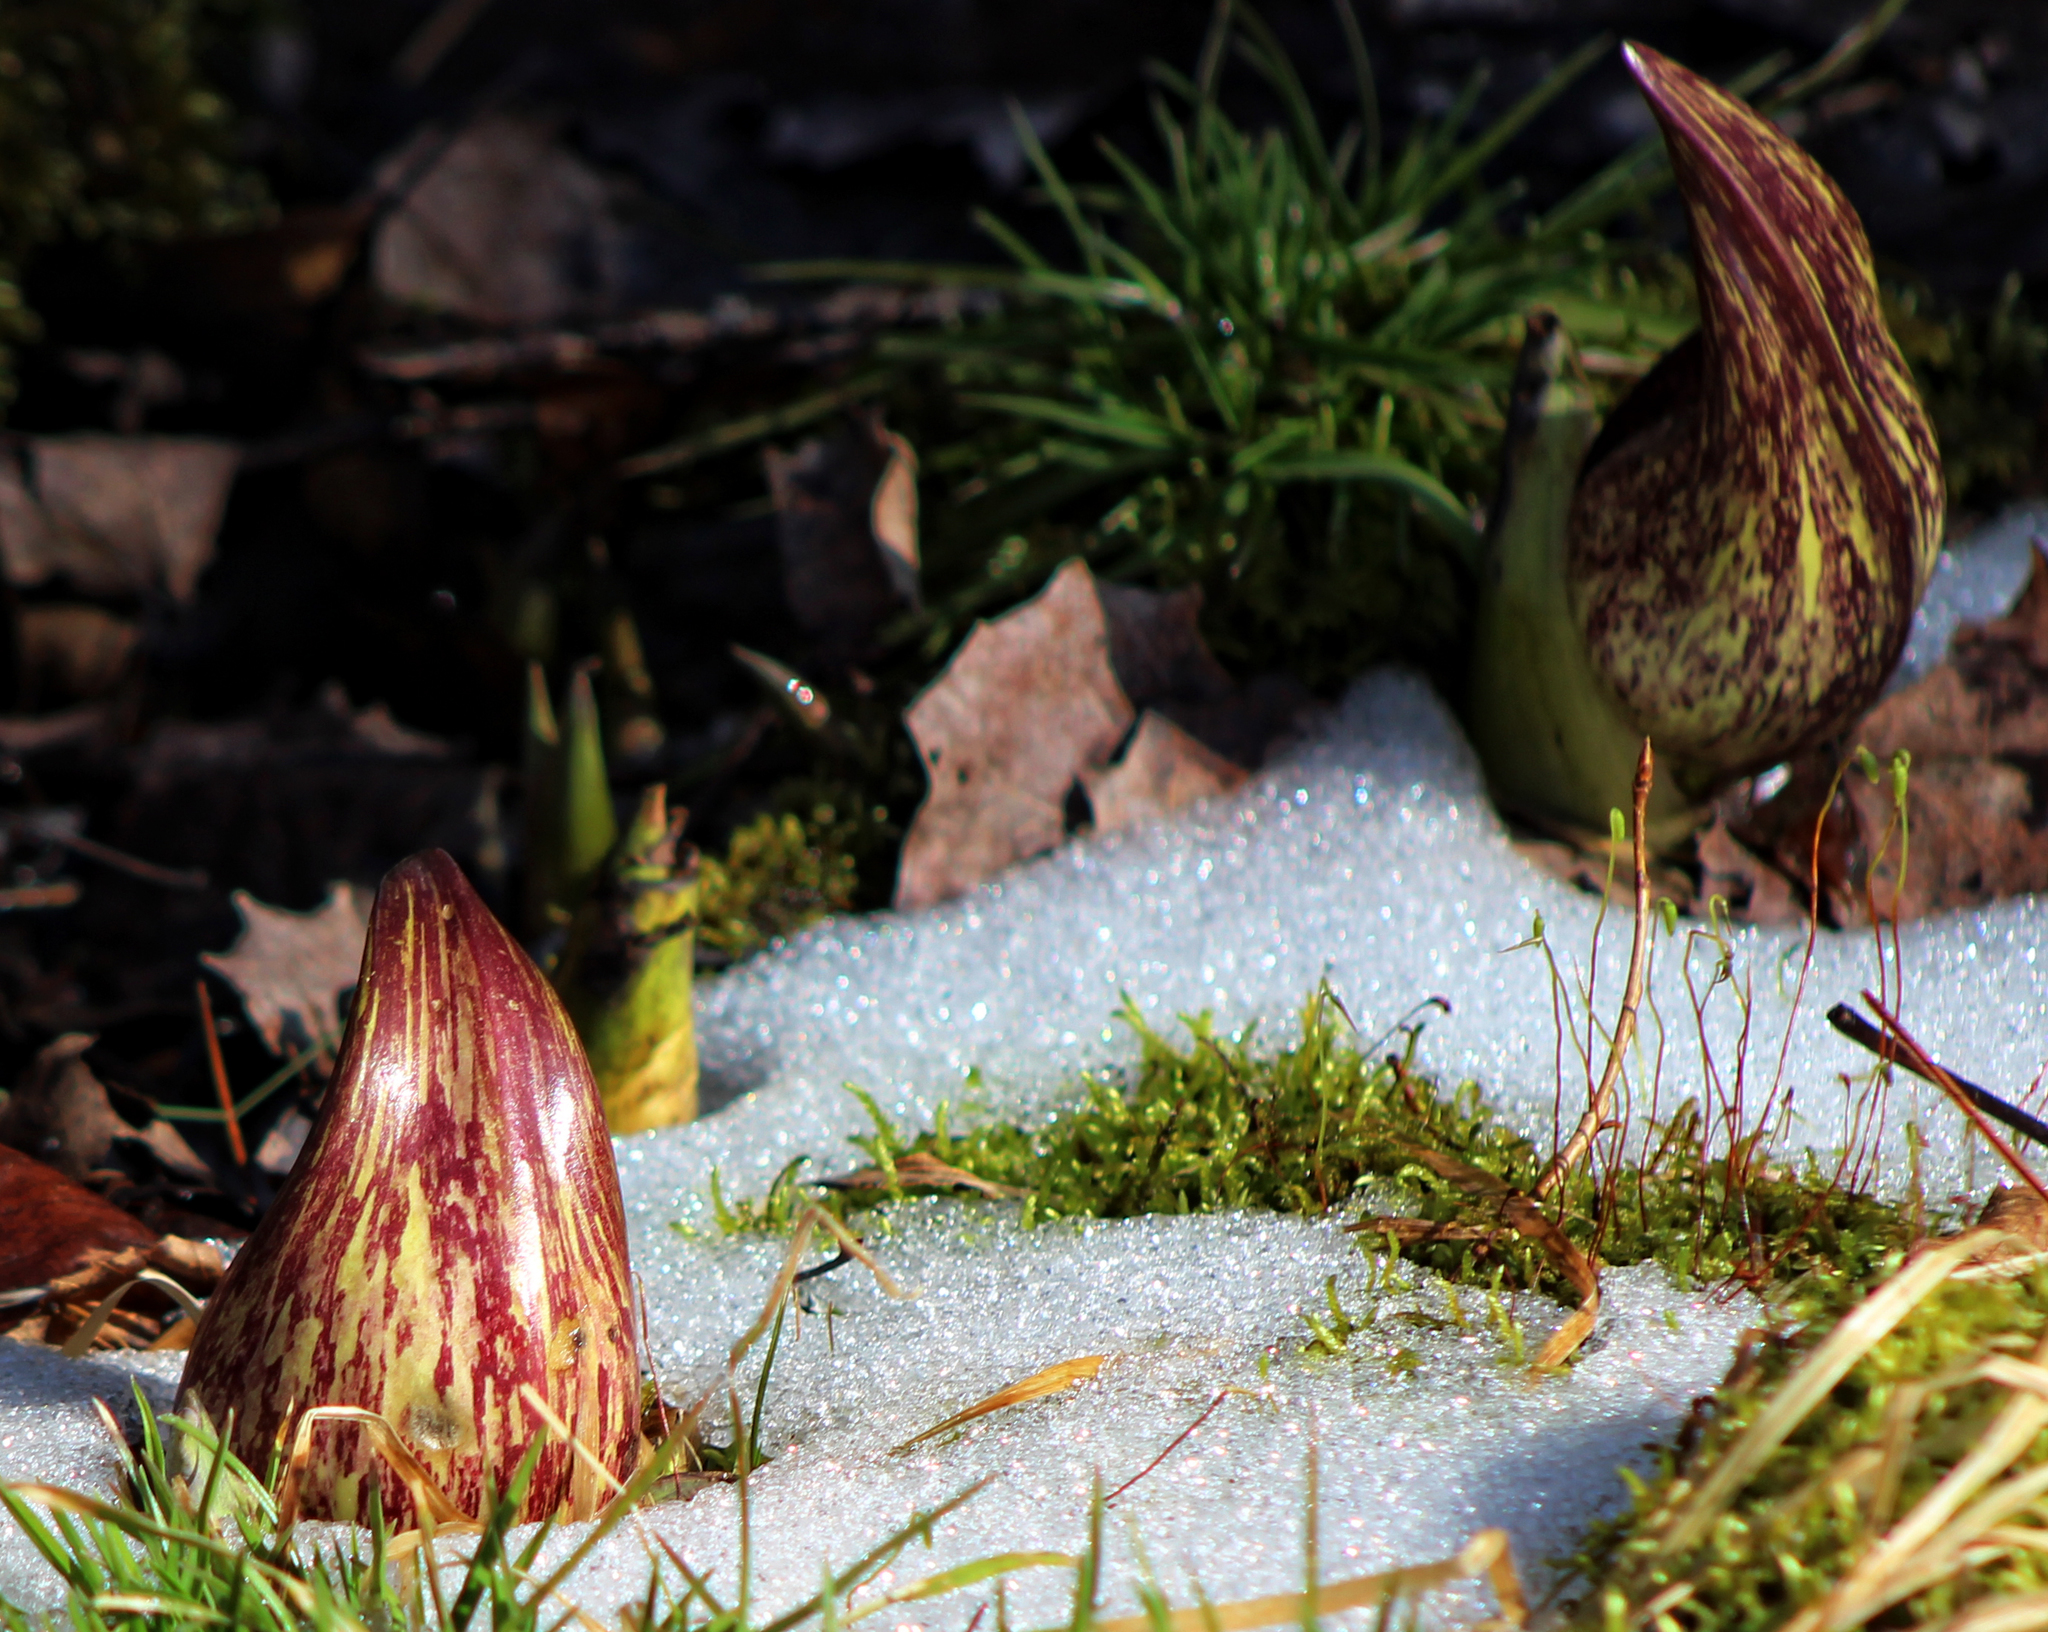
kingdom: Plantae
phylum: Tracheophyta
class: Liliopsida
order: Alismatales
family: Araceae
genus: Symplocarpus
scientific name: Symplocarpus foetidus
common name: Eastern skunk cabbage
